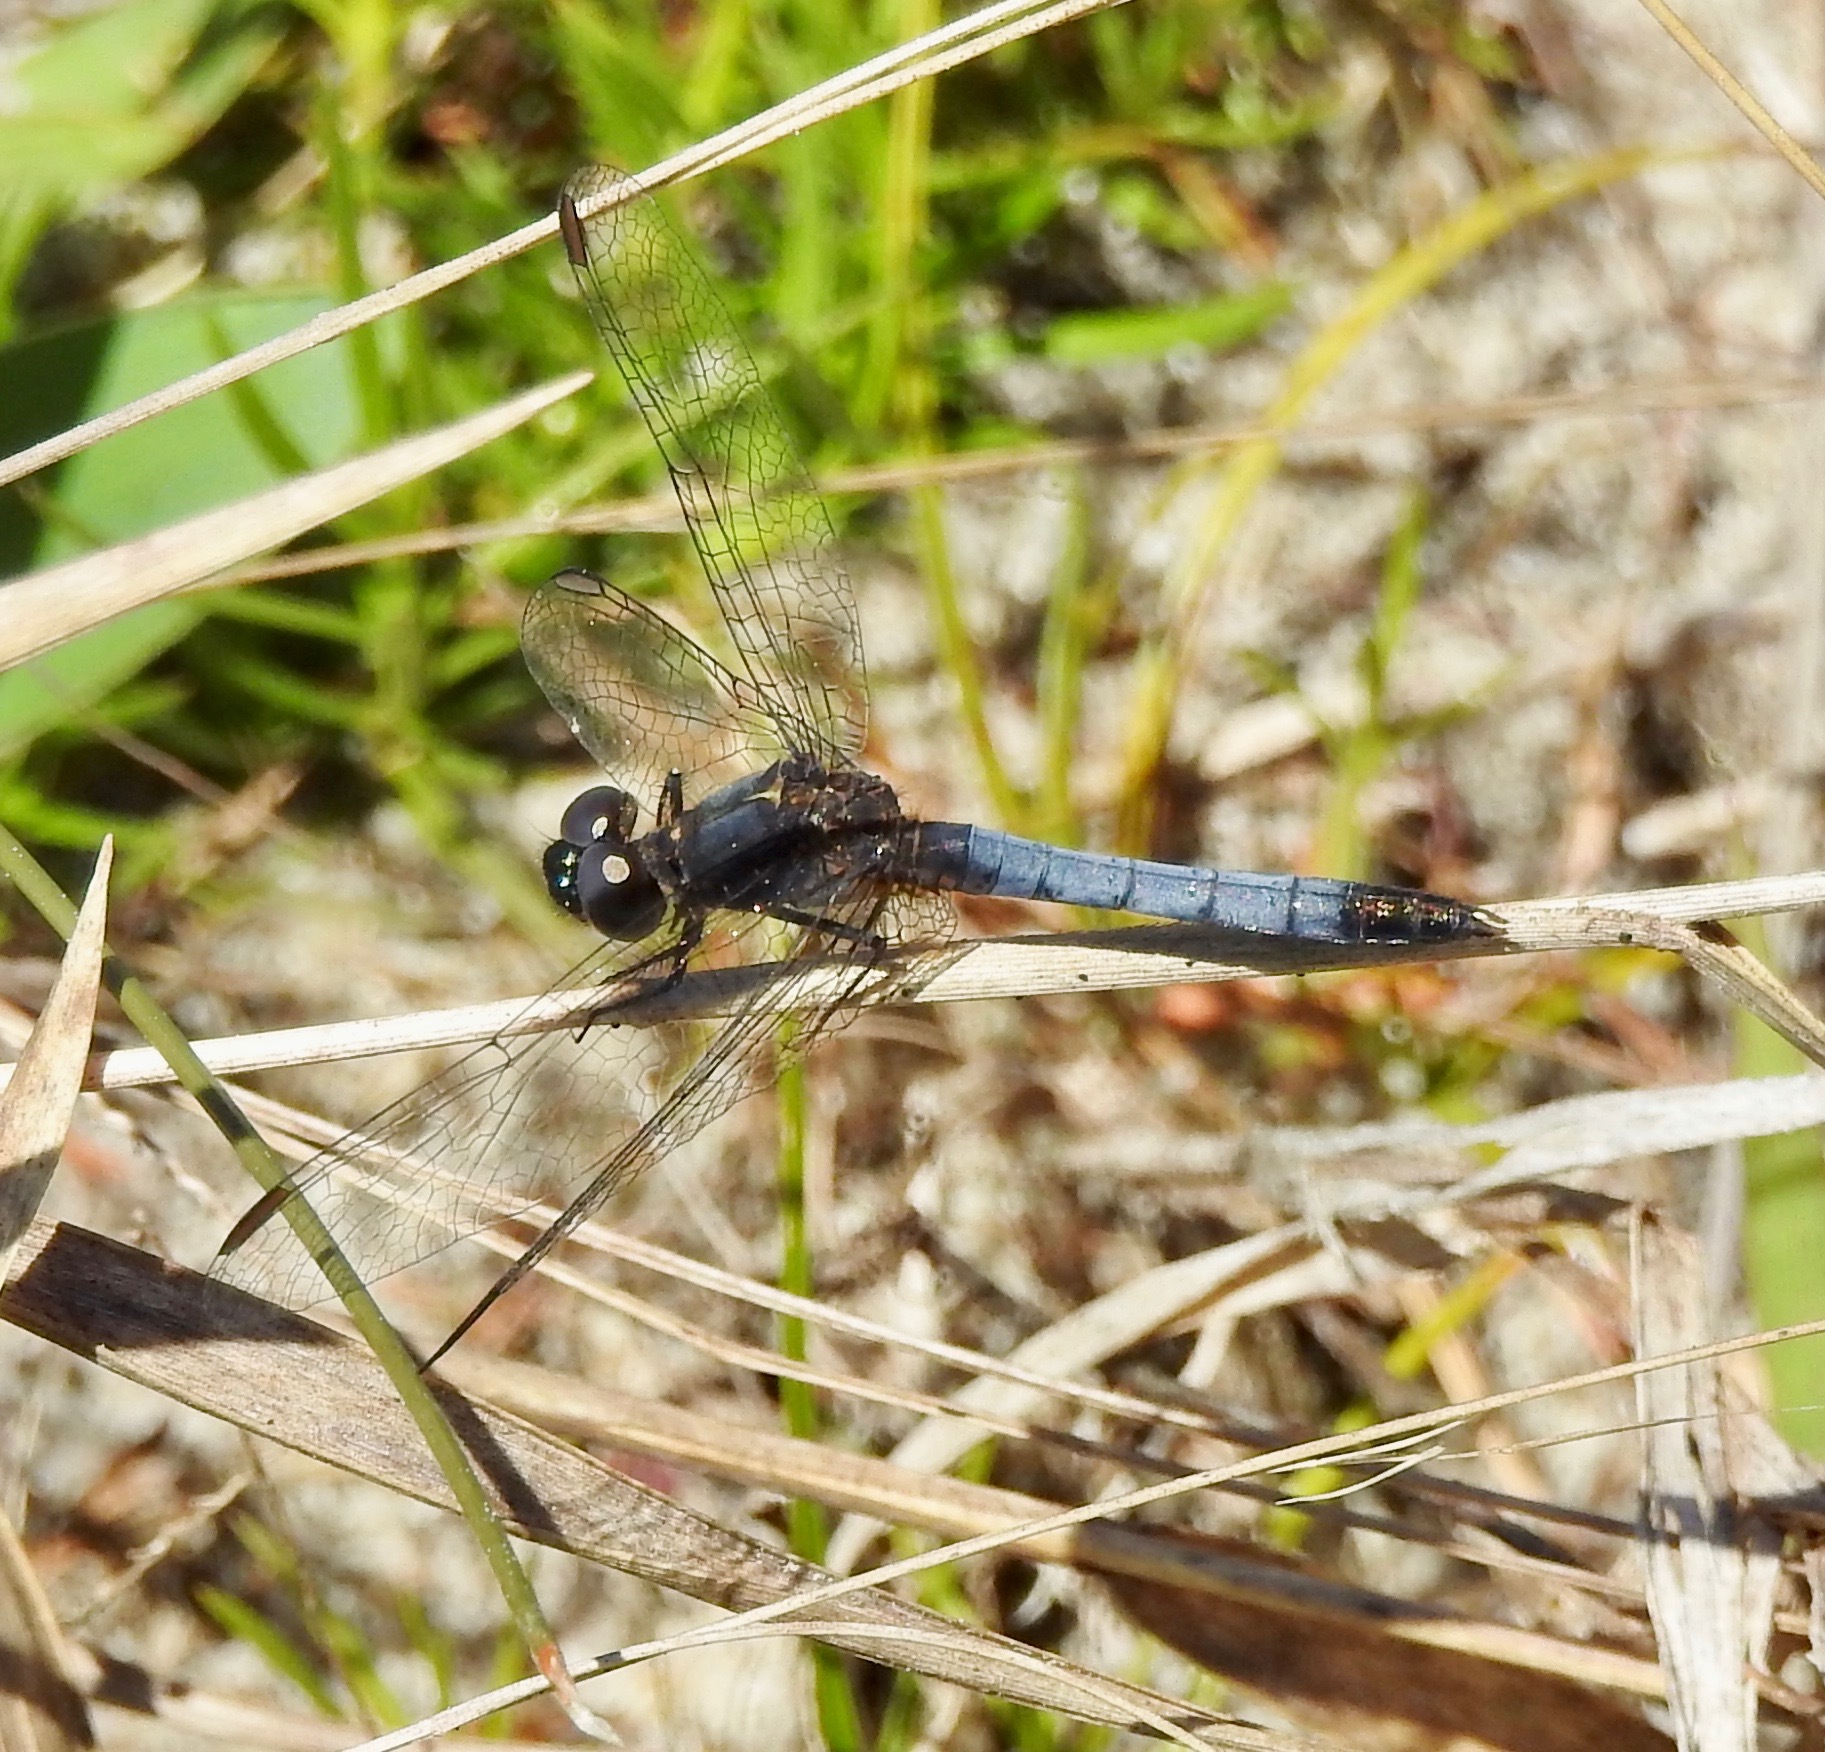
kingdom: Animalia
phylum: Arthropoda
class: Insecta
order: Odonata
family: Libellulidae
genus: Erythrodiplax
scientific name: Erythrodiplax minuscula
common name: Little blue dragonlet
